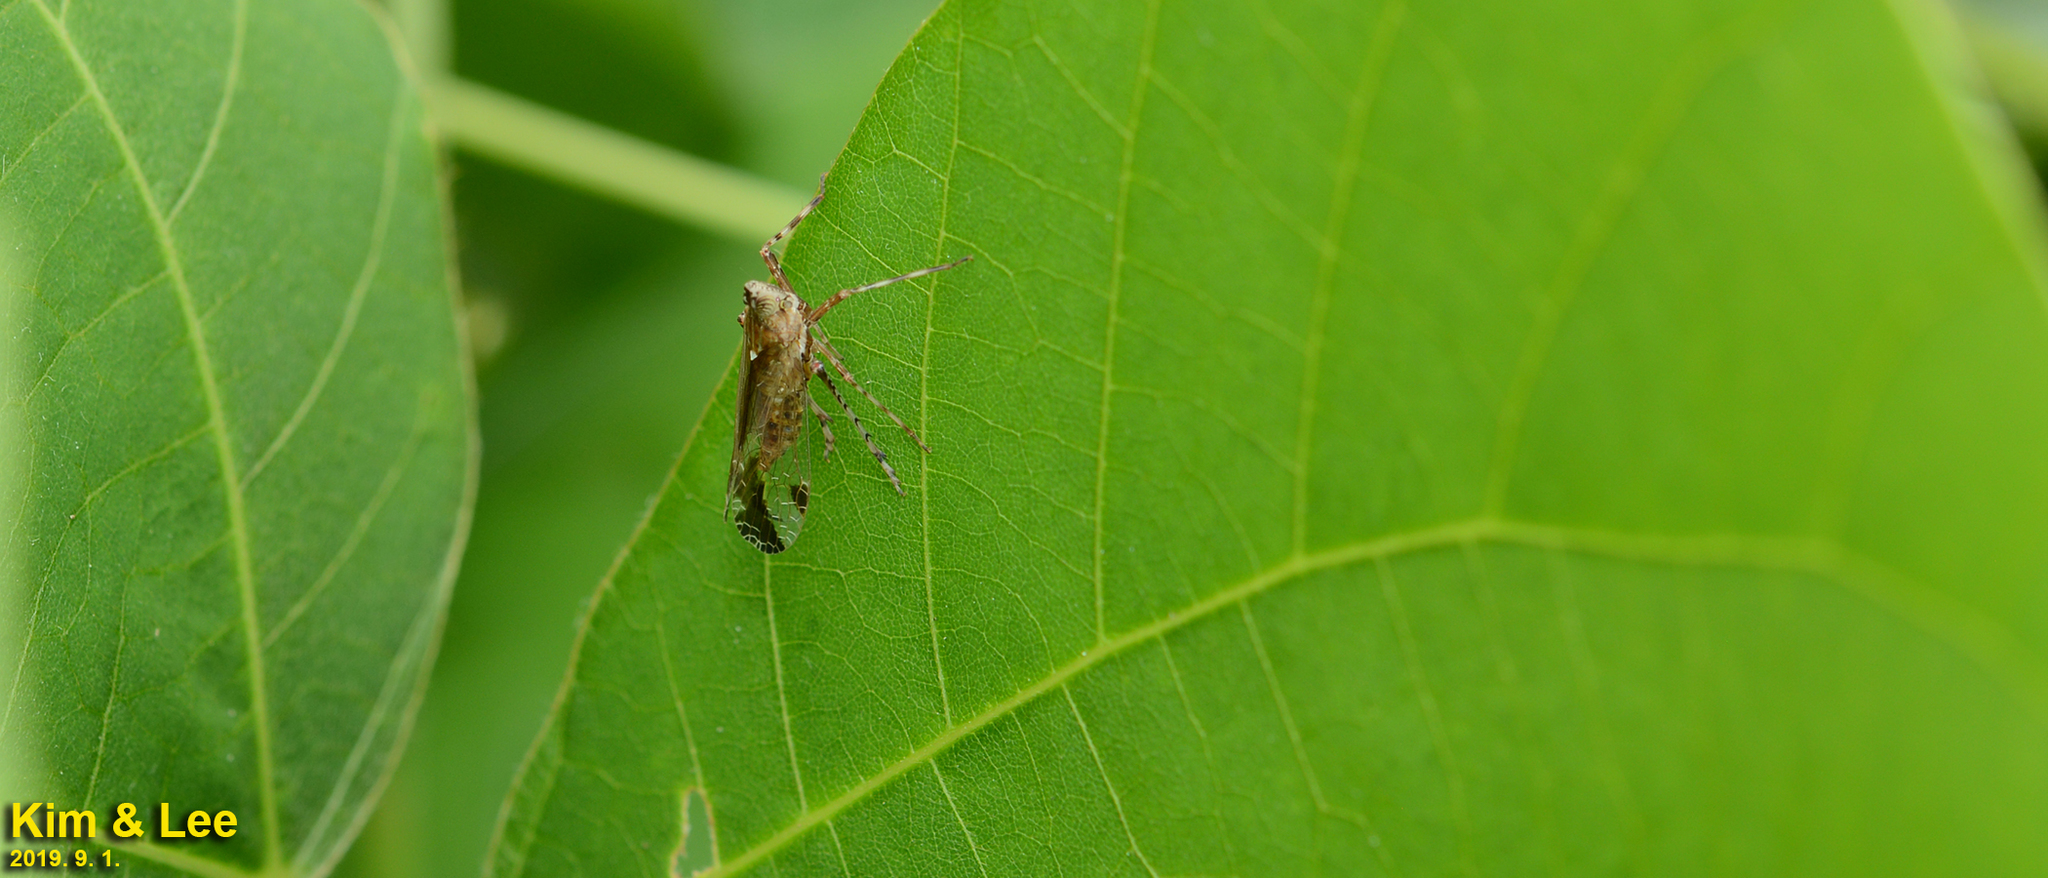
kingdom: Animalia
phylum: Arthropoda
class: Insecta
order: Hemiptera
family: Dictyopharidae
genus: Orthopagus
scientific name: Orthopagus lunulifer
